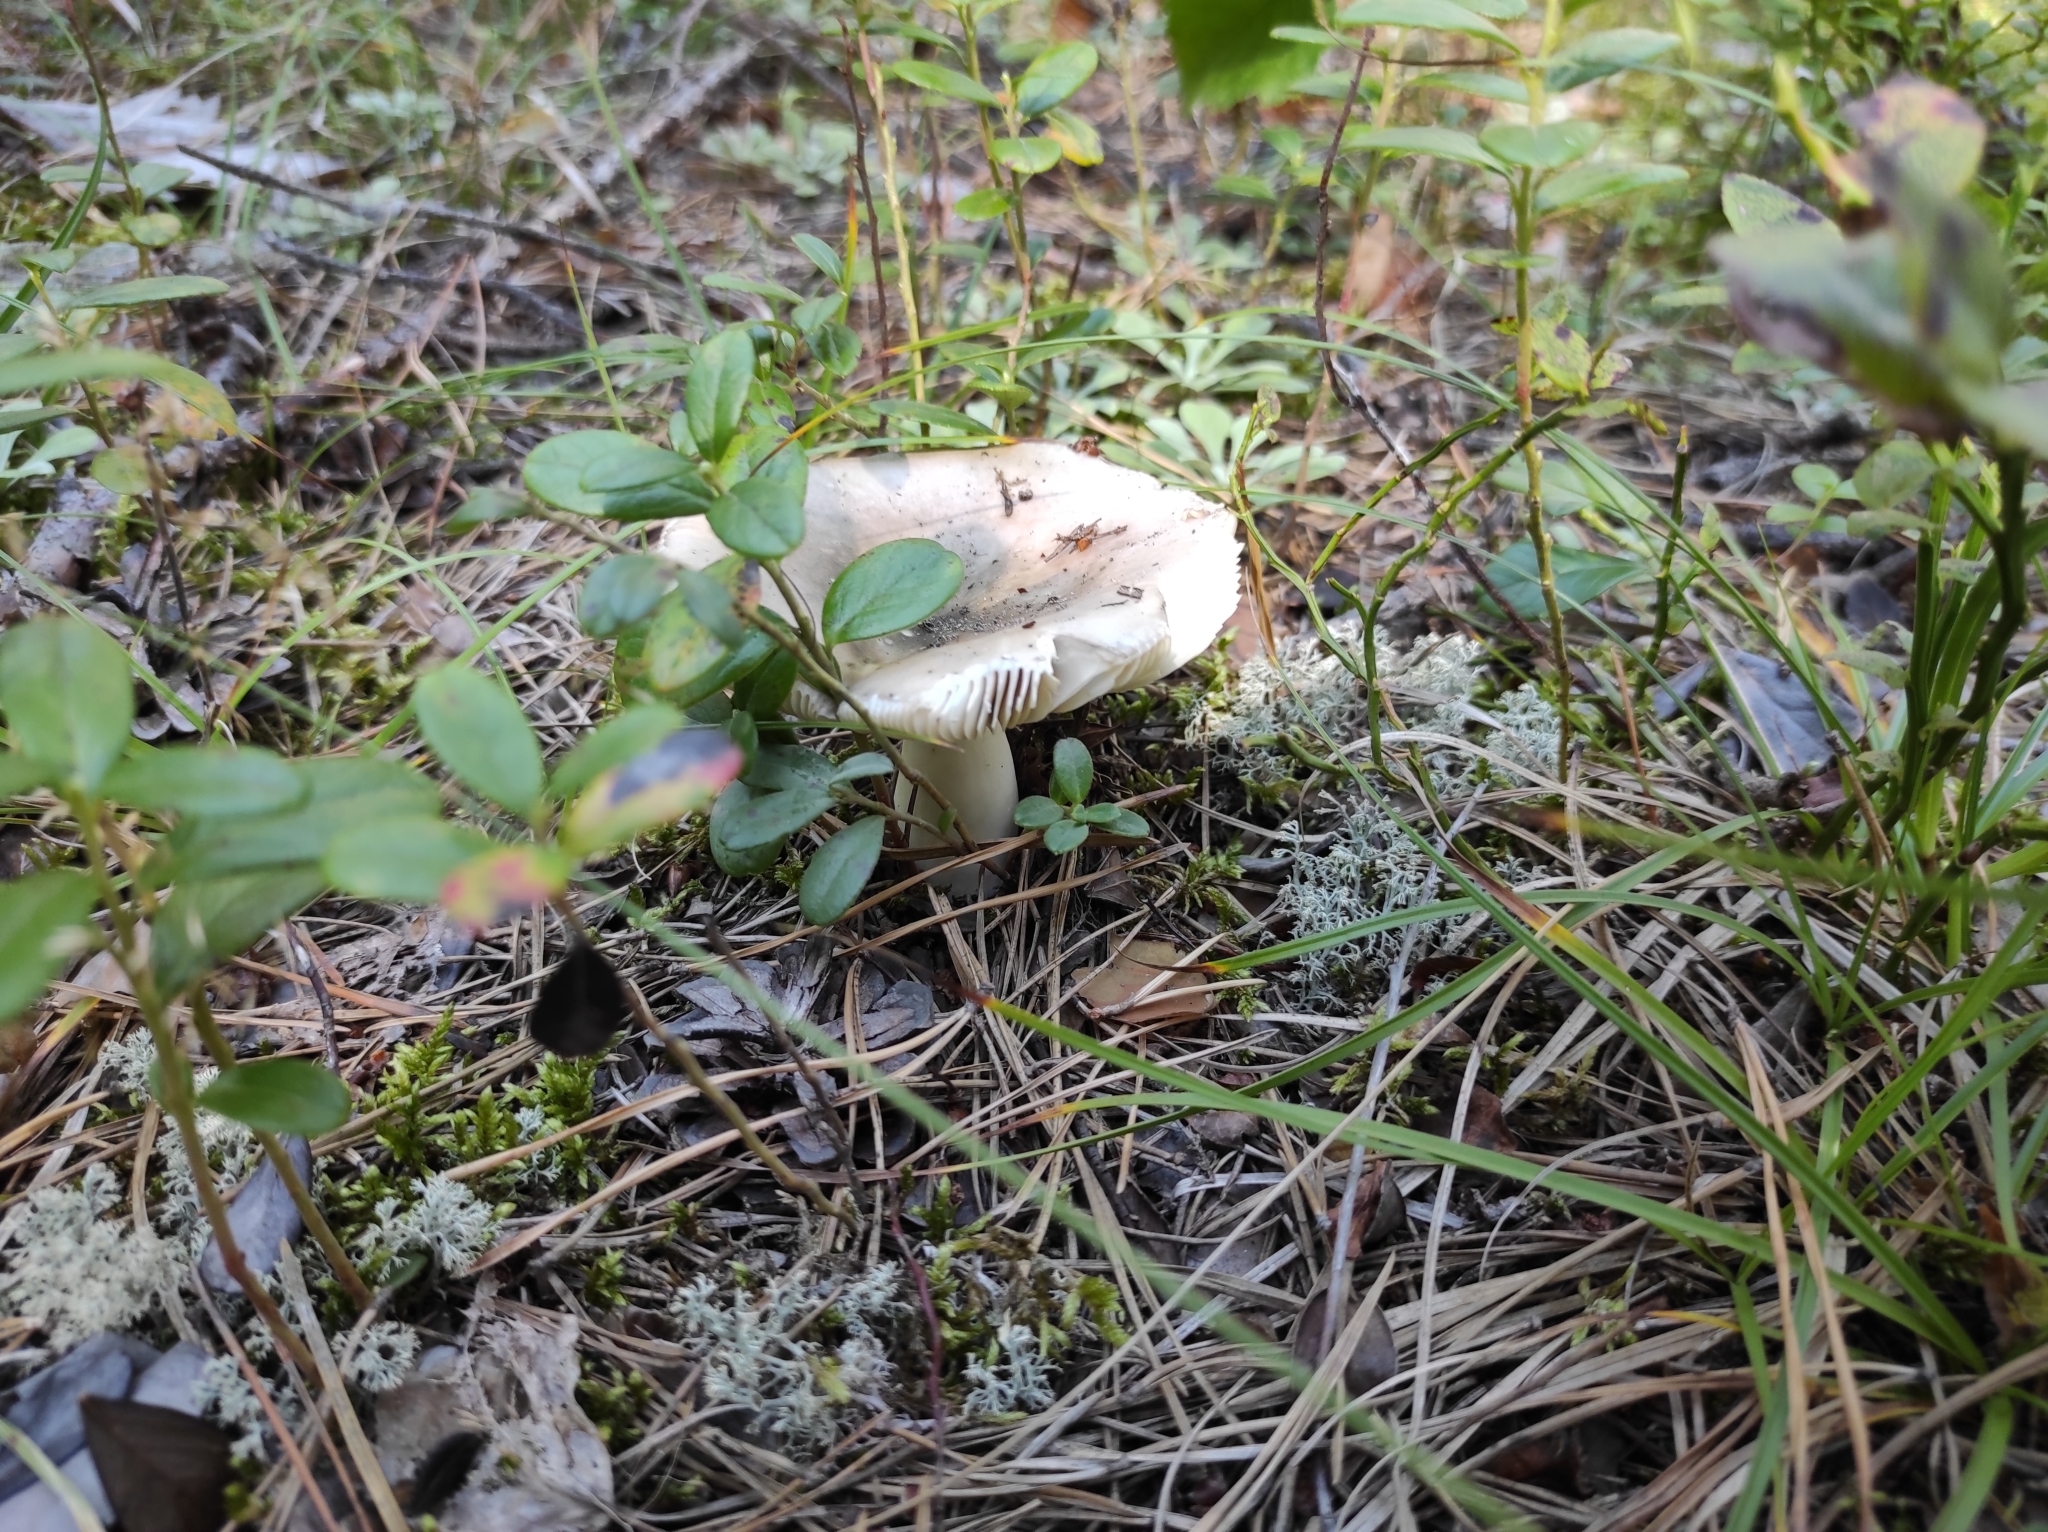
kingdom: Plantae
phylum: Tracheophyta
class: Magnoliopsida
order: Ericales
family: Ericaceae
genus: Vaccinium
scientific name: Vaccinium vitis-idaea
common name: Cowberry
